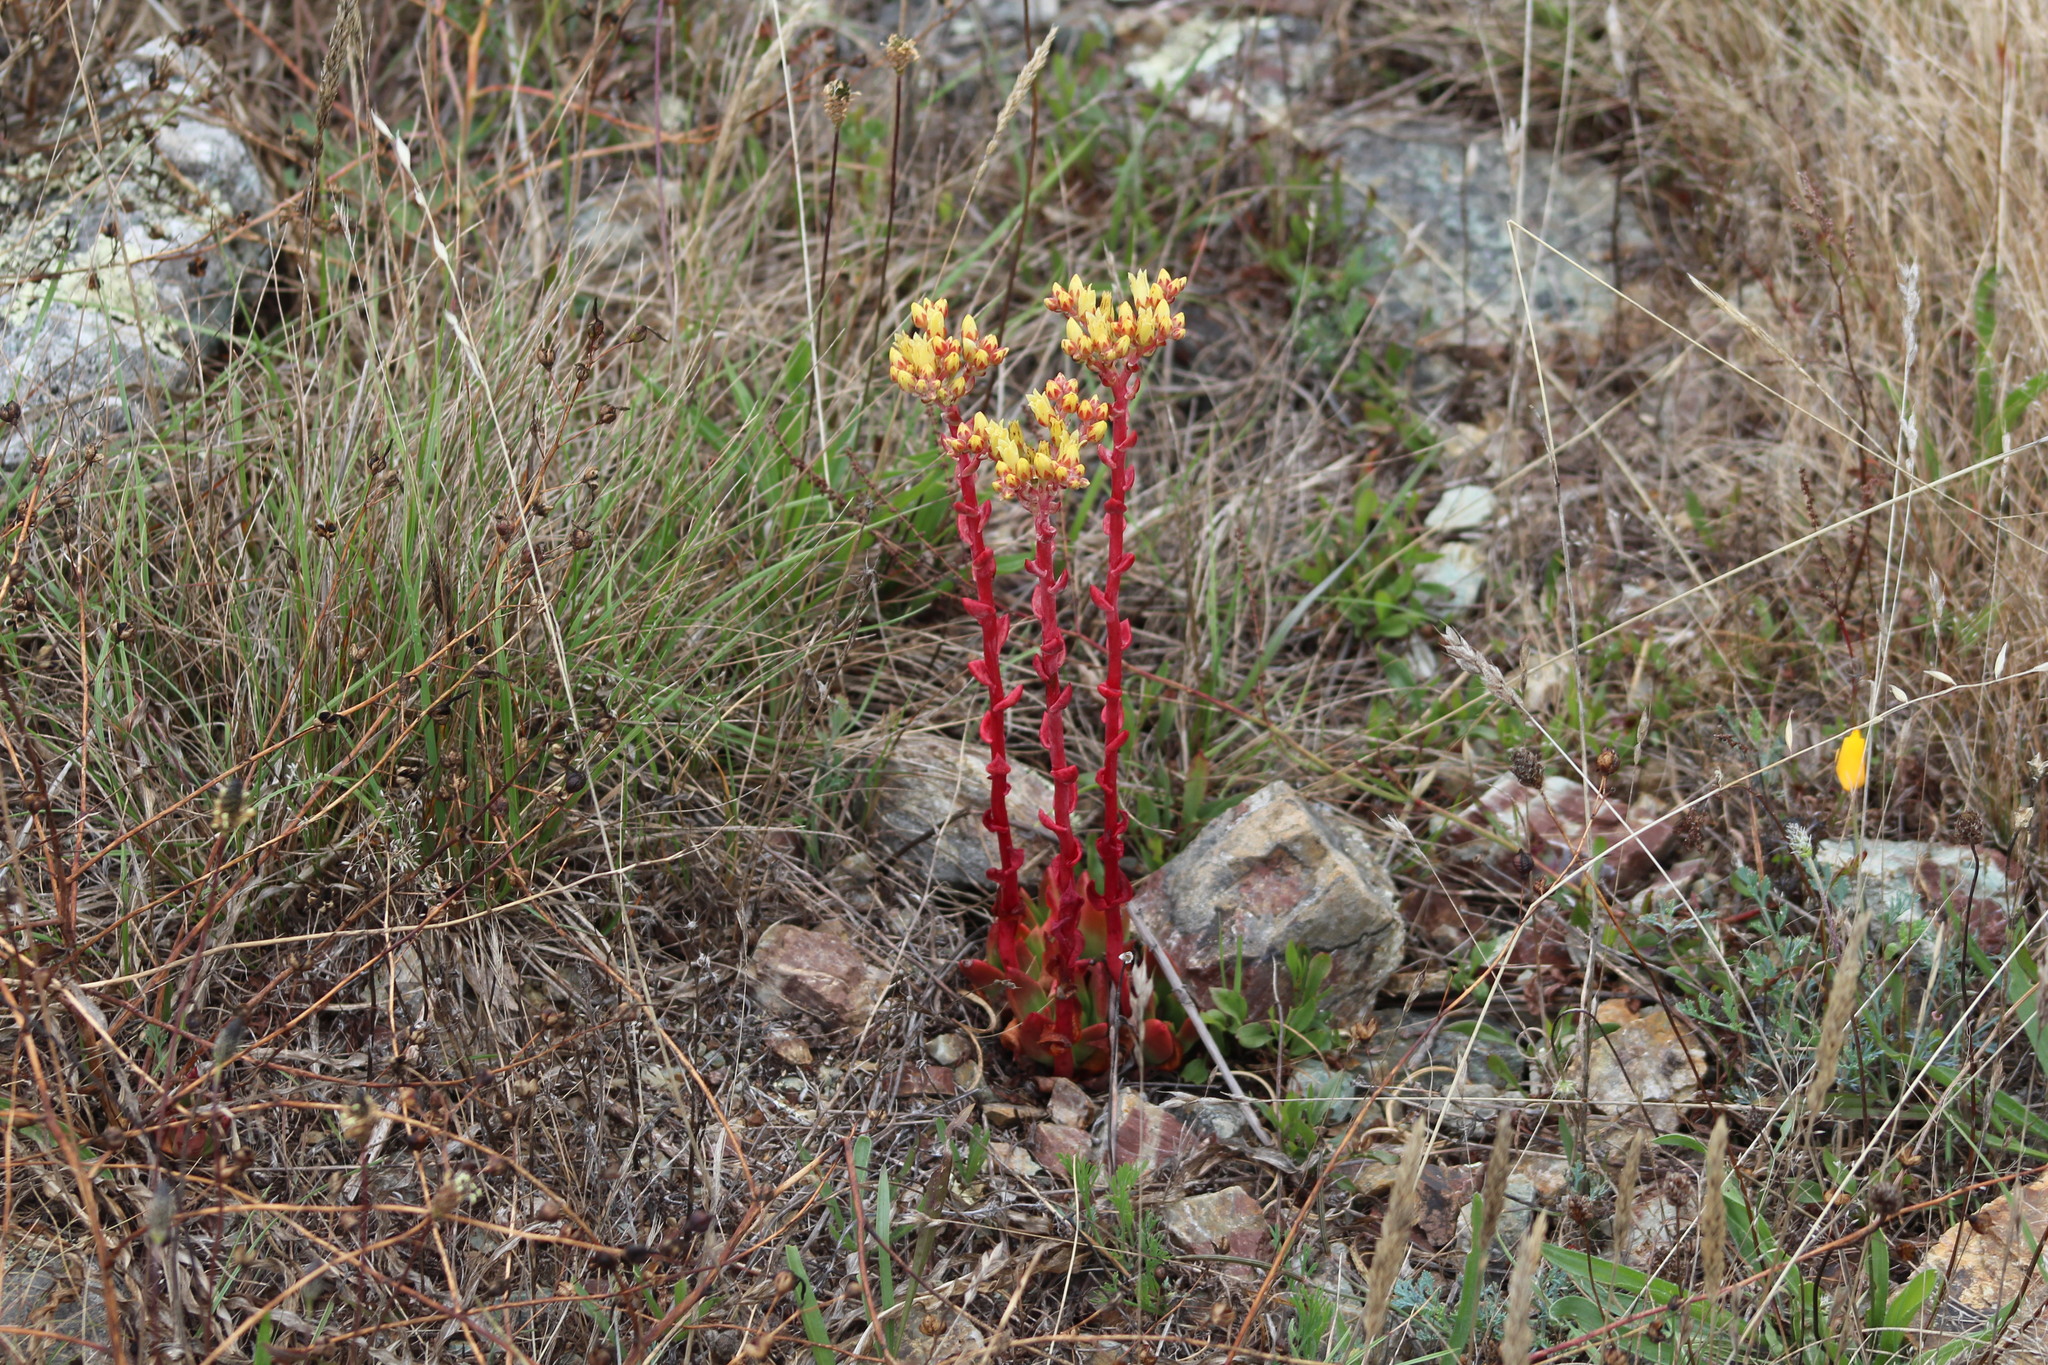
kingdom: Plantae
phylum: Tracheophyta
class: Magnoliopsida
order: Saxifragales
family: Crassulaceae
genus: Dudleya
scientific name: Dudleya farinosa
